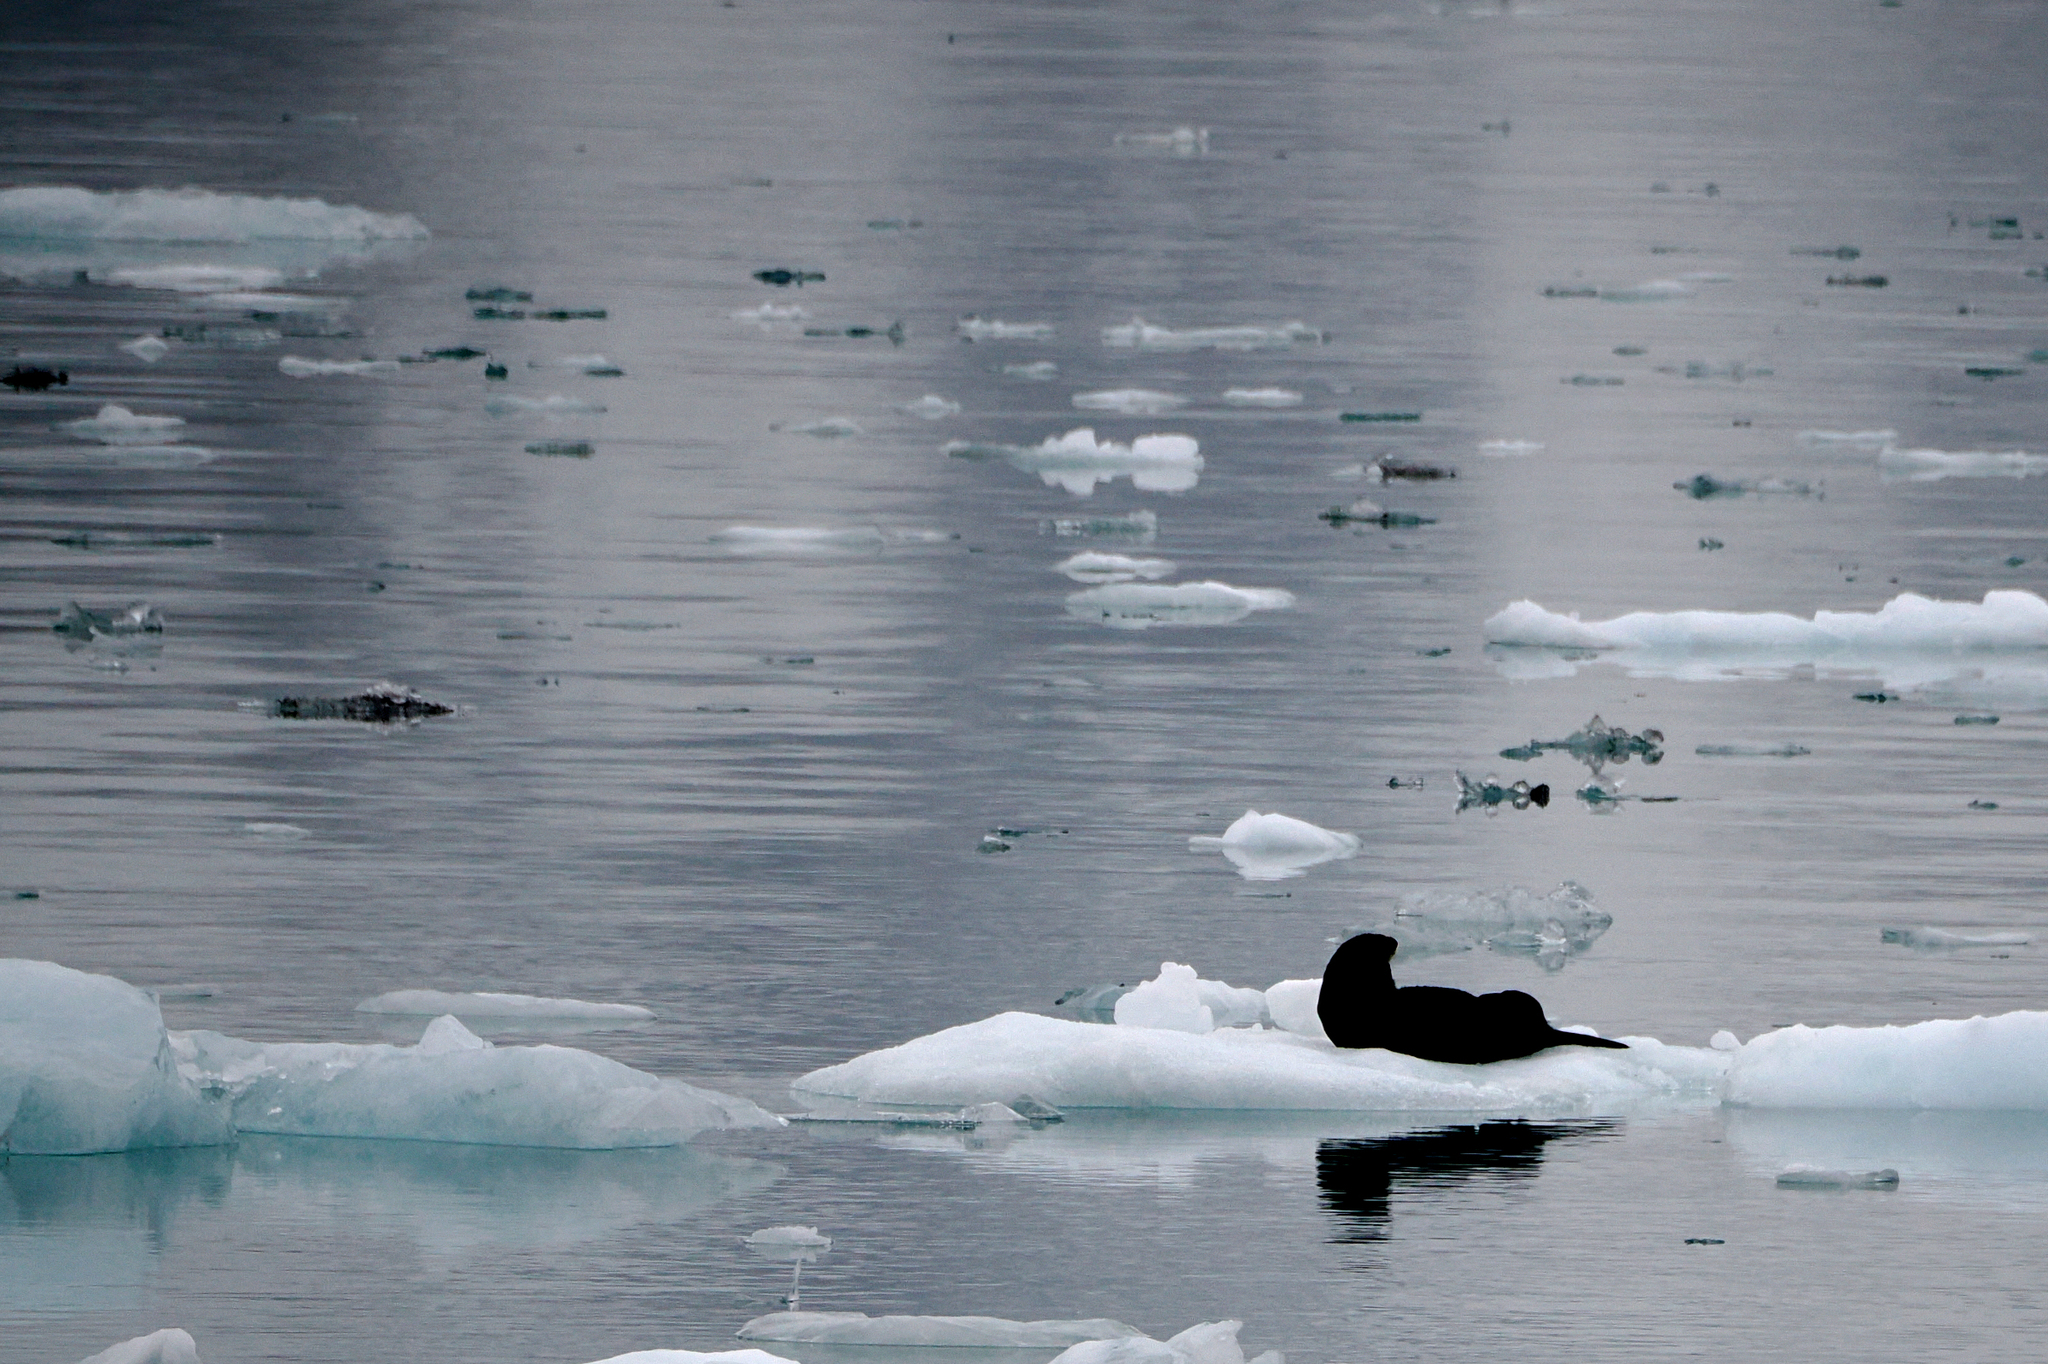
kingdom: Animalia
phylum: Chordata
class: Mammalia
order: Carnivora
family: Mustelidae
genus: Enhydra
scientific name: Enhydra lutris
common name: Sea otter
